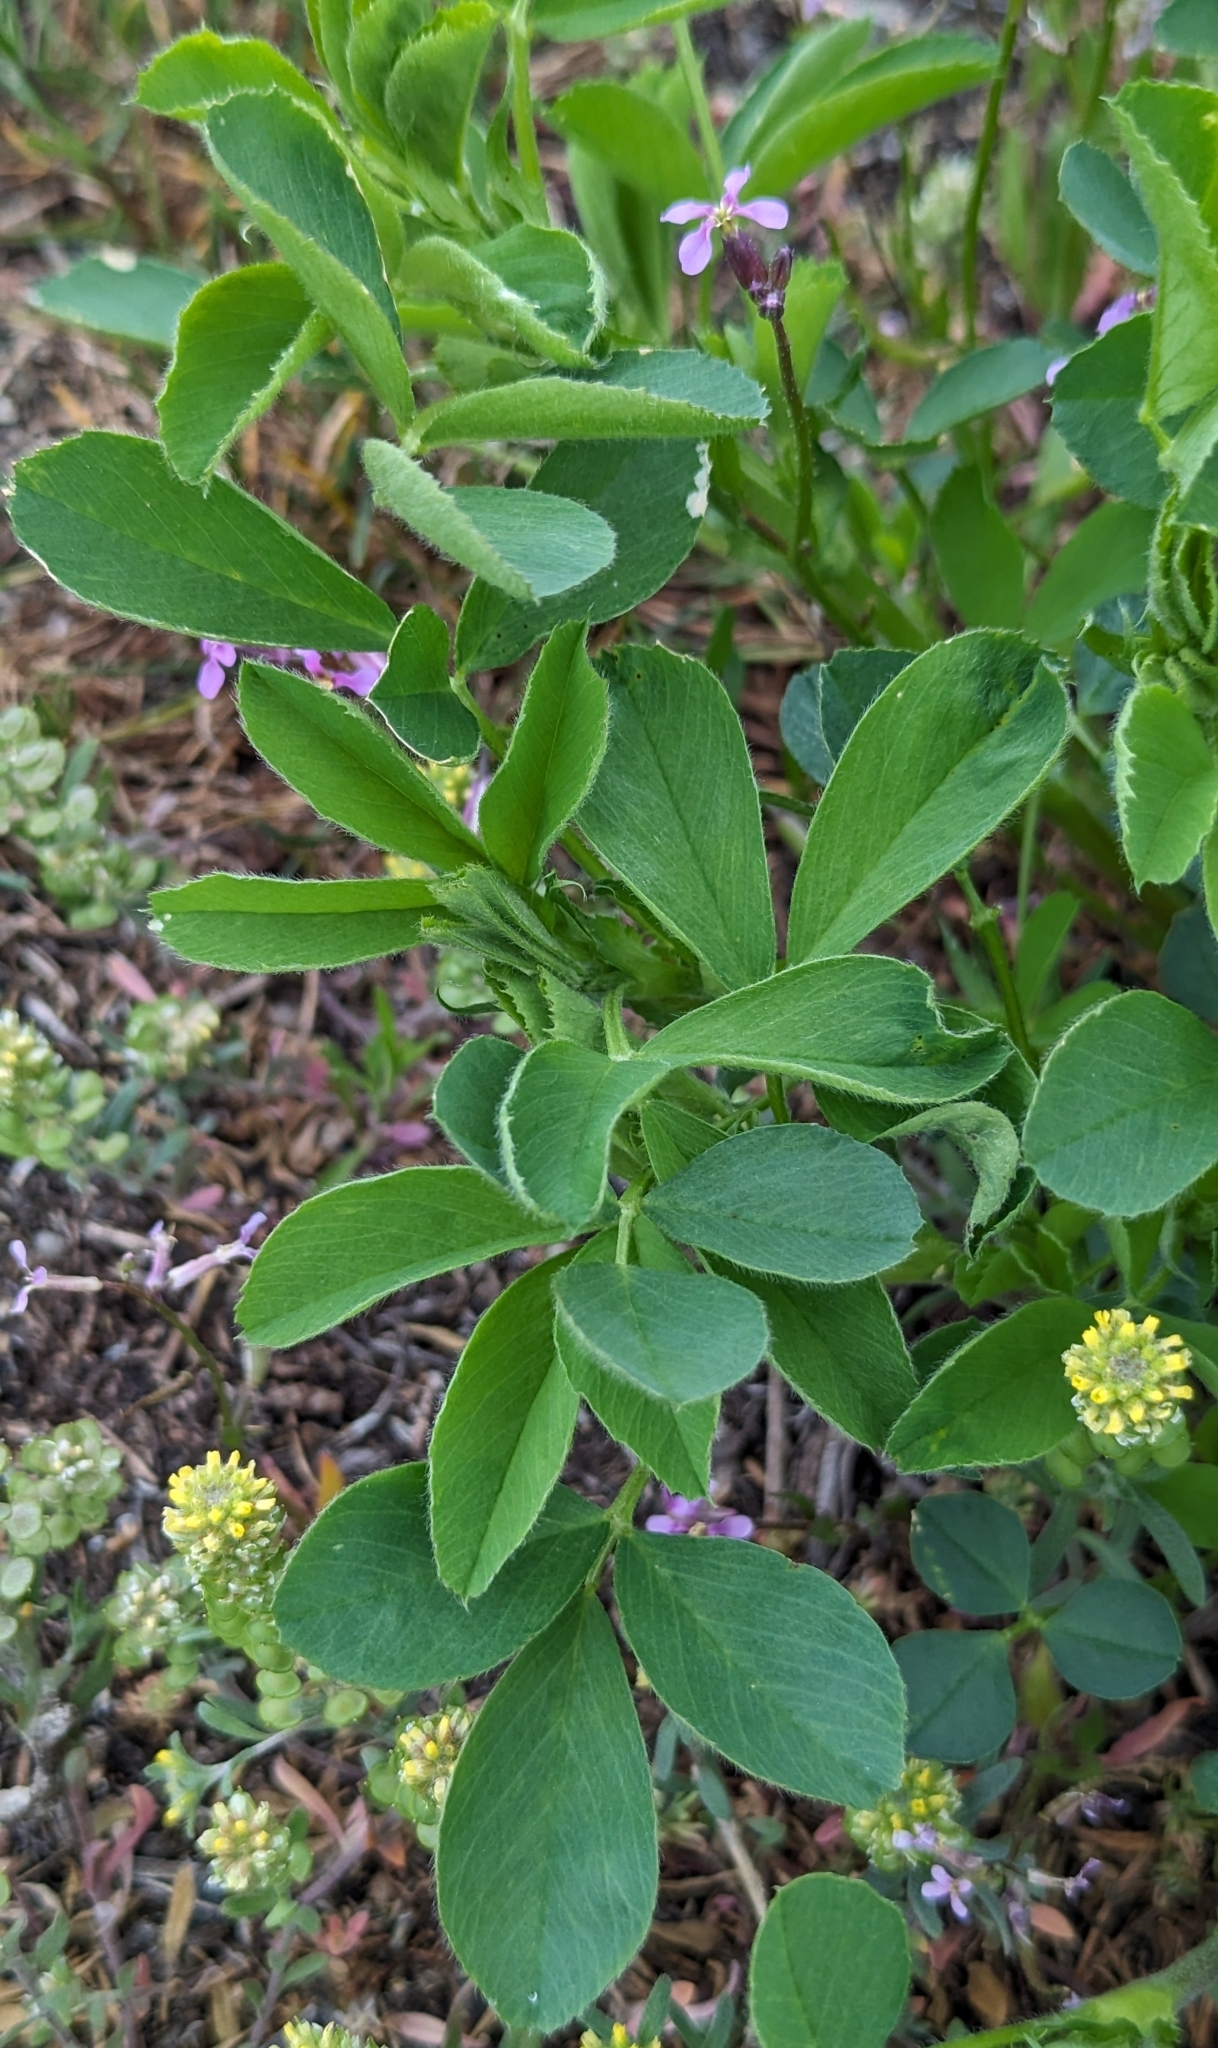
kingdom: Plantae
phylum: Tracheophyta
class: Magnoliopsida
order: Fabales
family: Fabaceae
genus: Medicago
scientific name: Medicago lupulina
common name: Black medick
